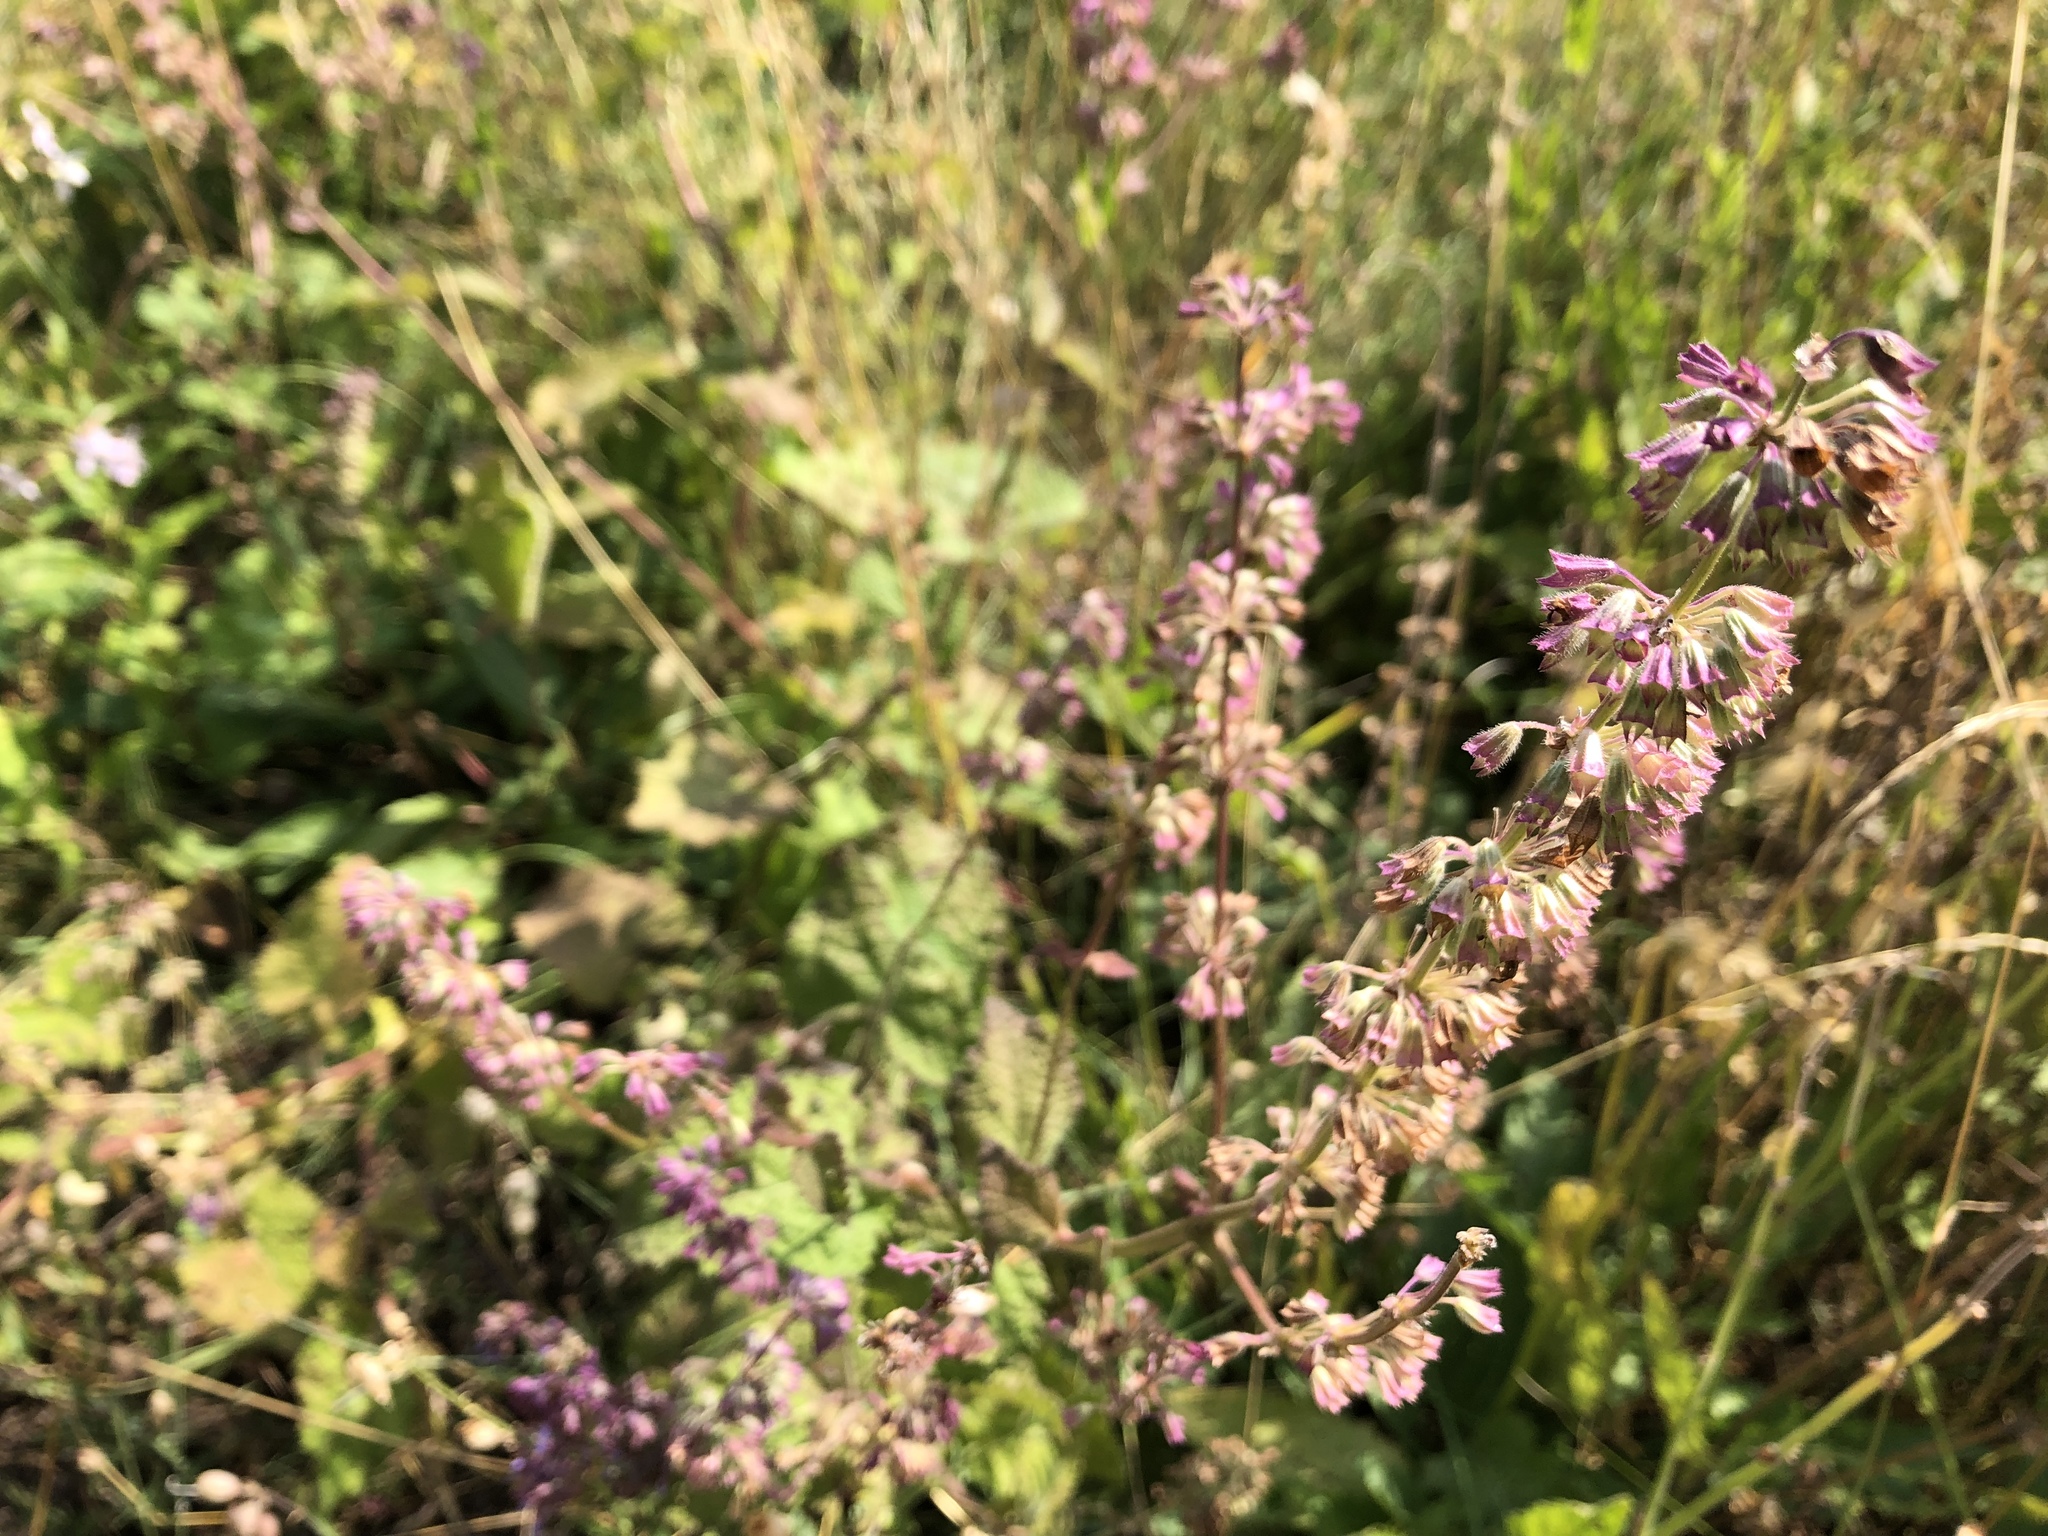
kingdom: Plantae
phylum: Tracheophyta
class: Magnoliopsida
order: Lamiales
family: Lamiaceae
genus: Salvia
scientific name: Salvia verticillata
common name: Whorled clary
